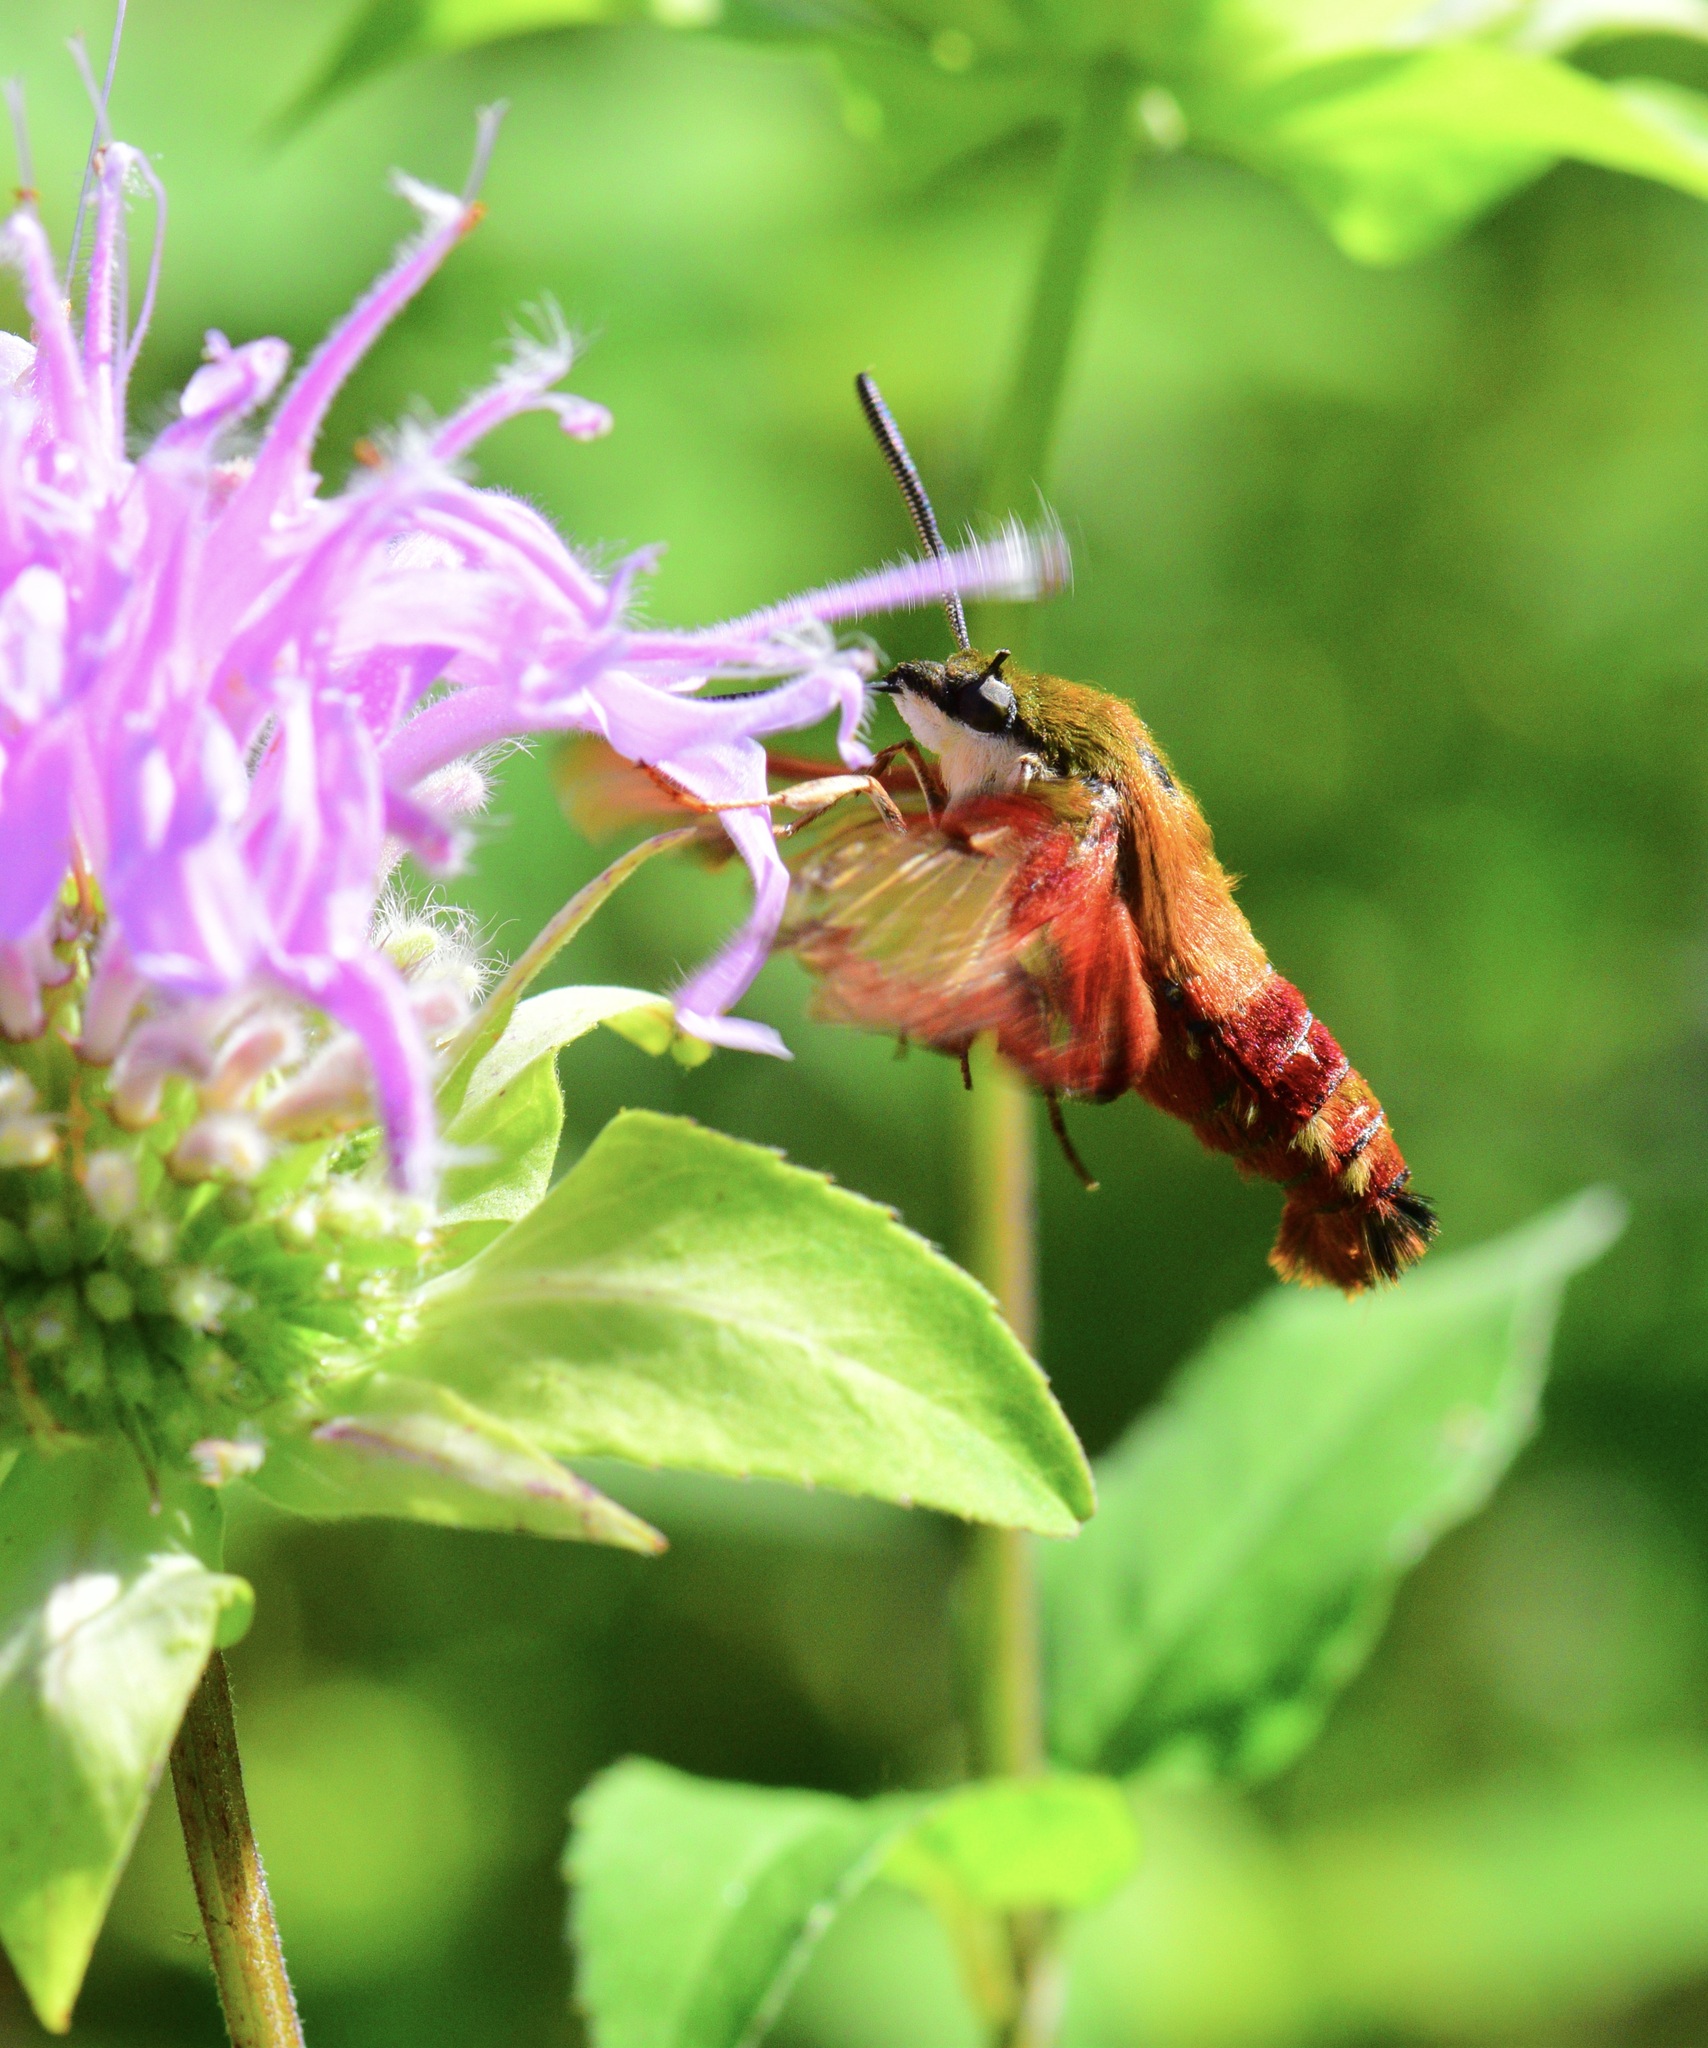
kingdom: Animalia
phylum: Arthropoda
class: Insecta
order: Lepidoptera
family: Sphingidae
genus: Hemaris
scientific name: Hemaris thysbe
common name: Common clear-wing
